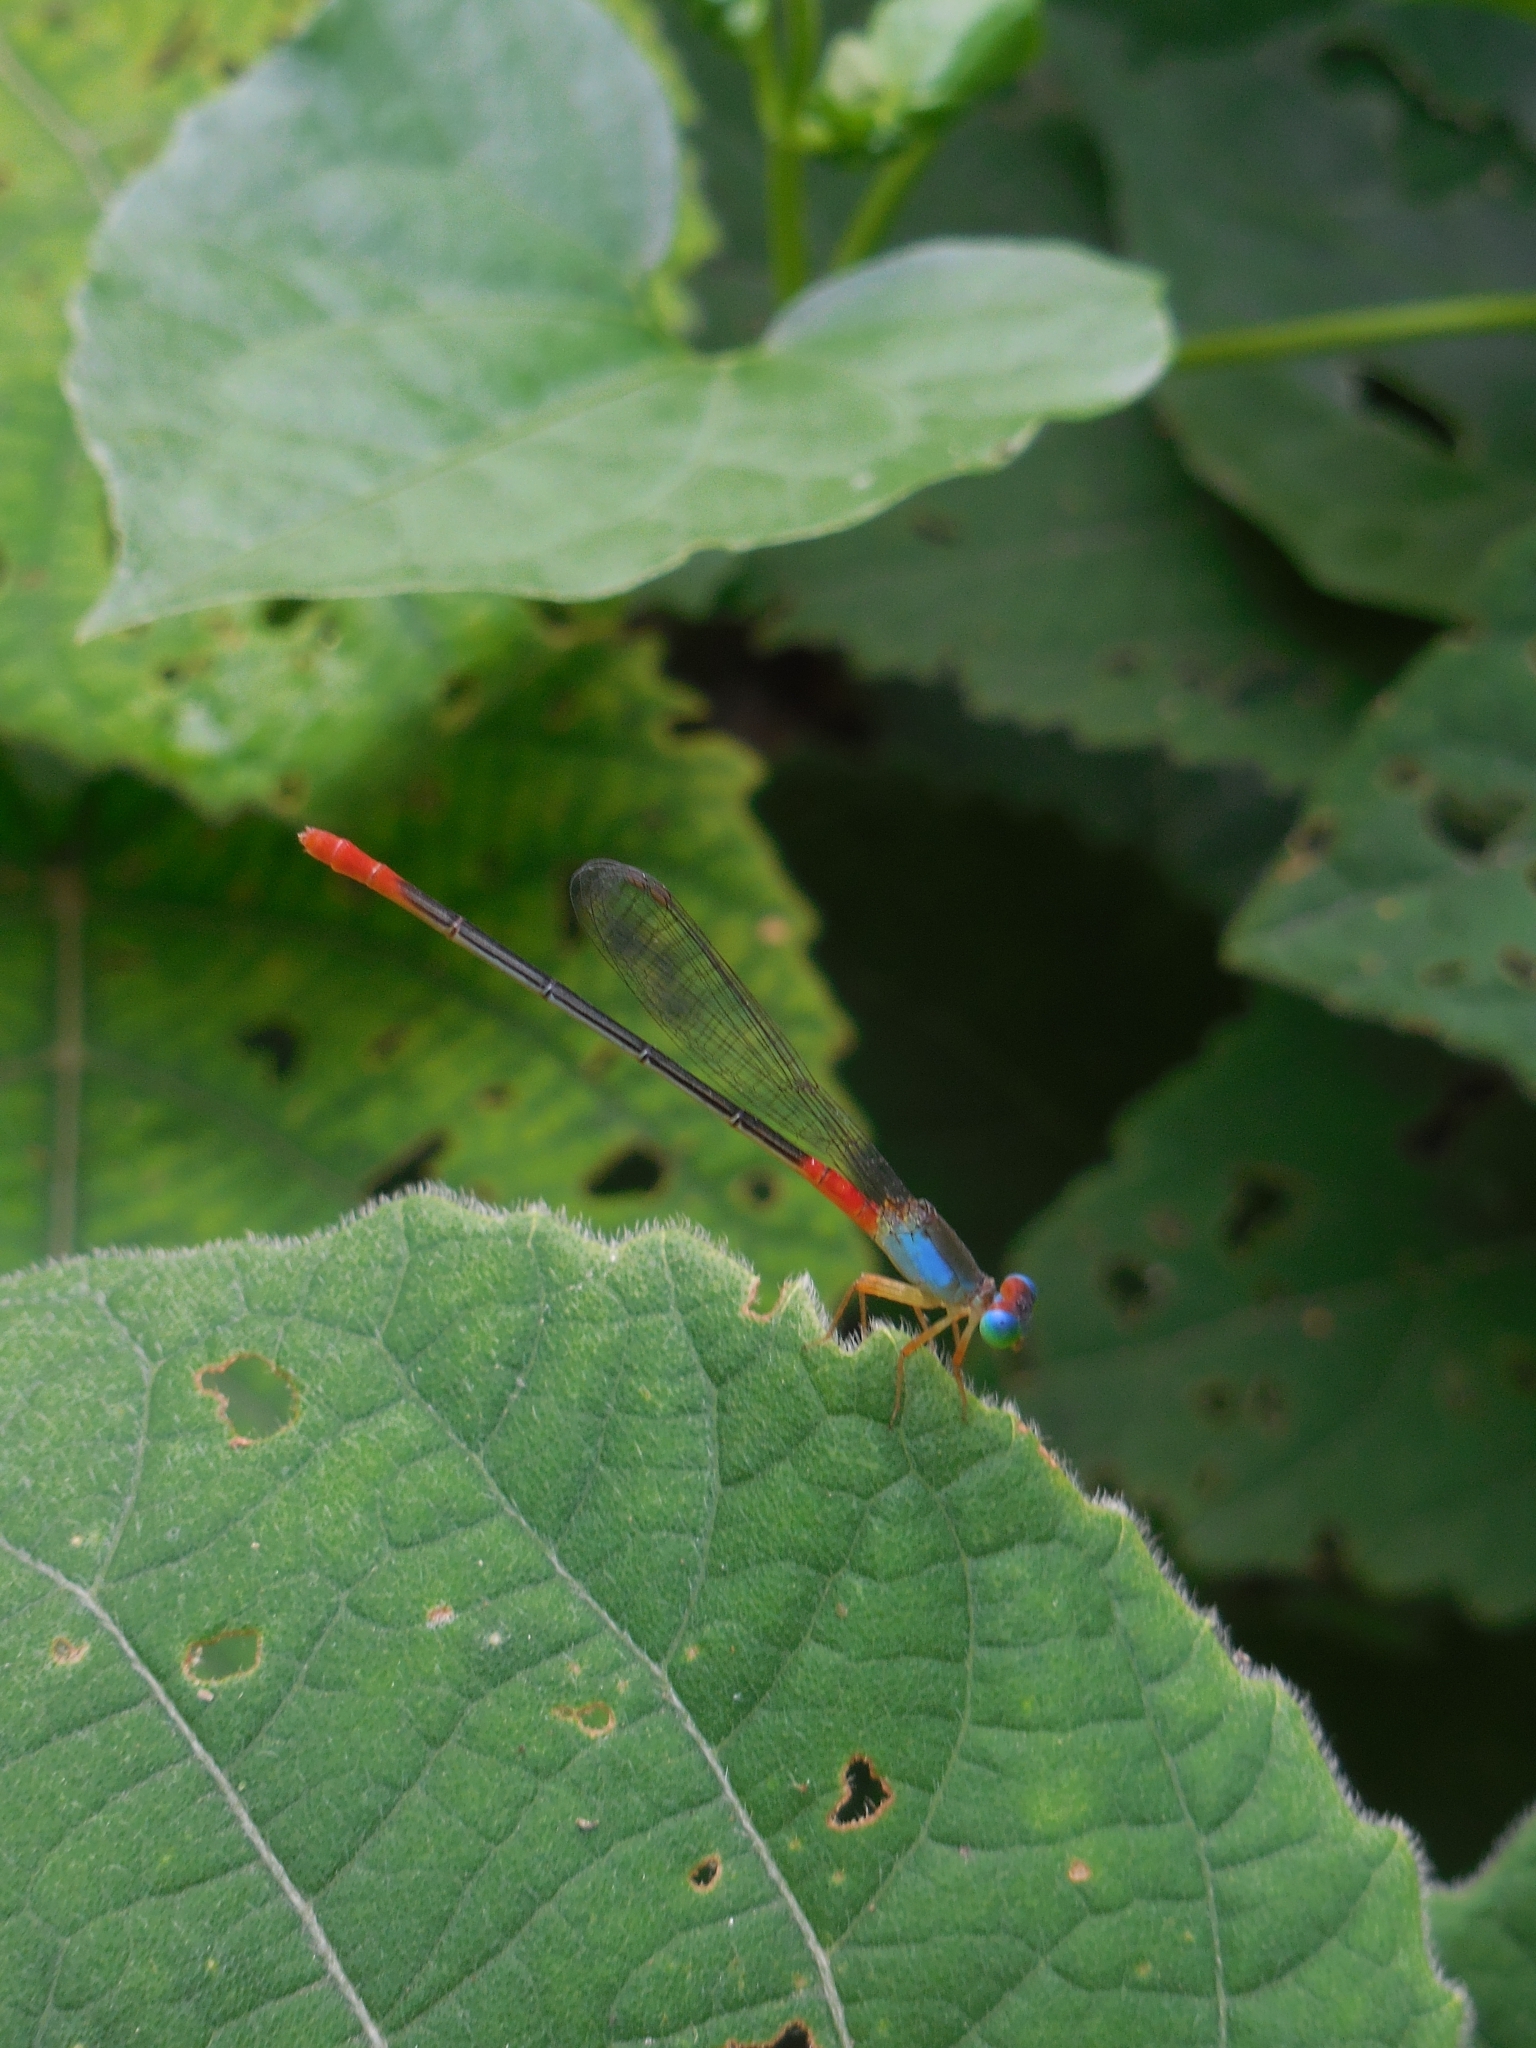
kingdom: Animalia
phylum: Arthropoda
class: Insecta
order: Odonata
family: Coenagrionidae
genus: Ceriagrion
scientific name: Ceriagrion cerinorubellum
